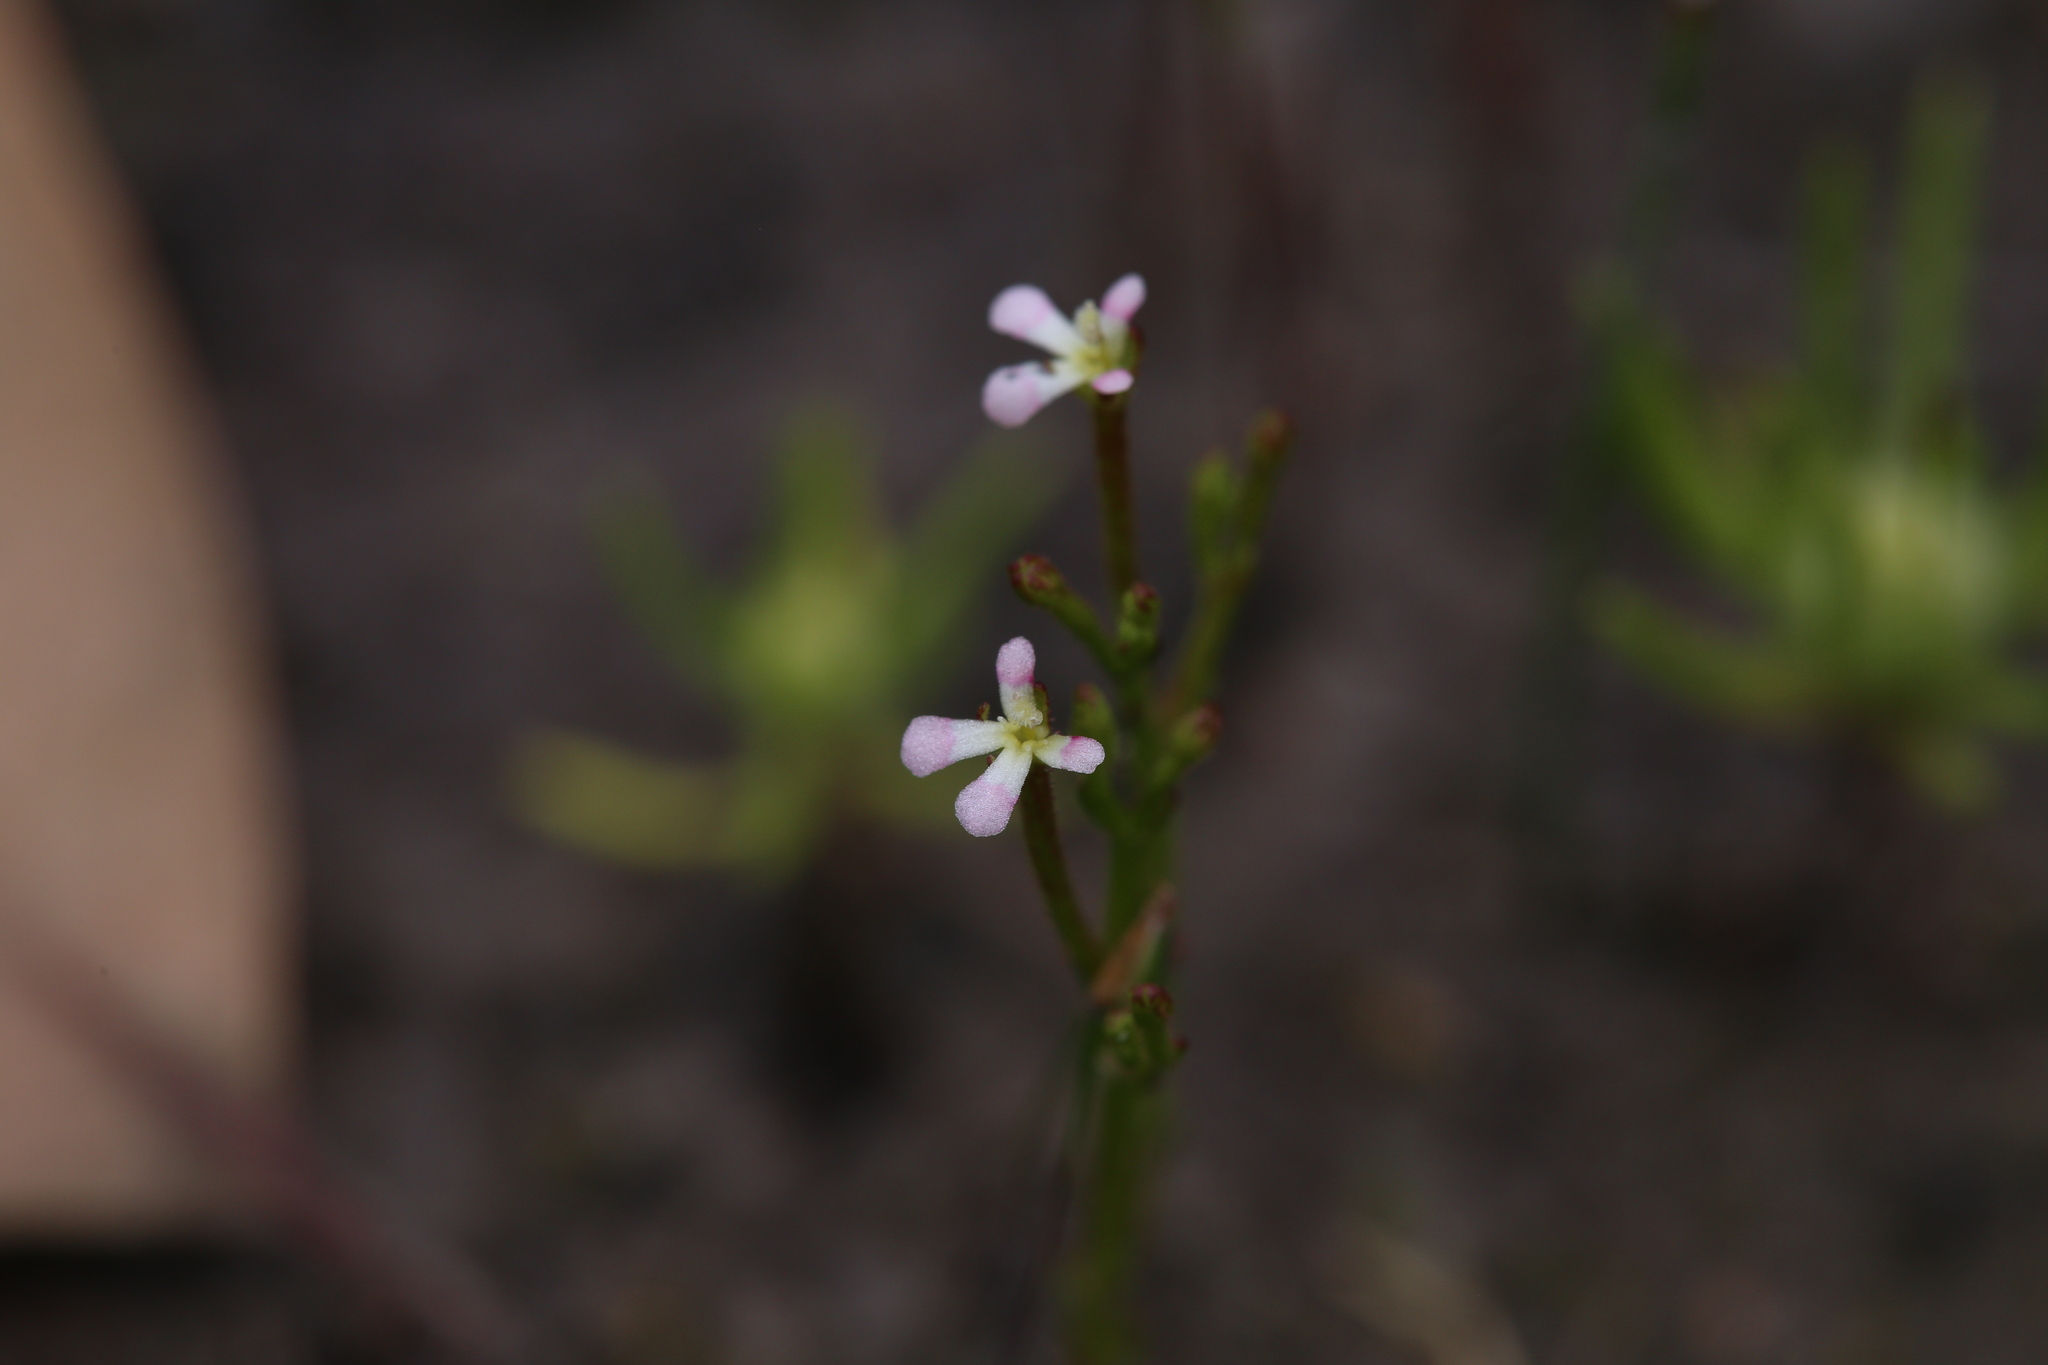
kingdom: Plantae
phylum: Tracheophyta
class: Magnoliopsida
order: Asterales
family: Stylidiaceae
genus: Stylidium
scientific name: Stylidium inundatum
